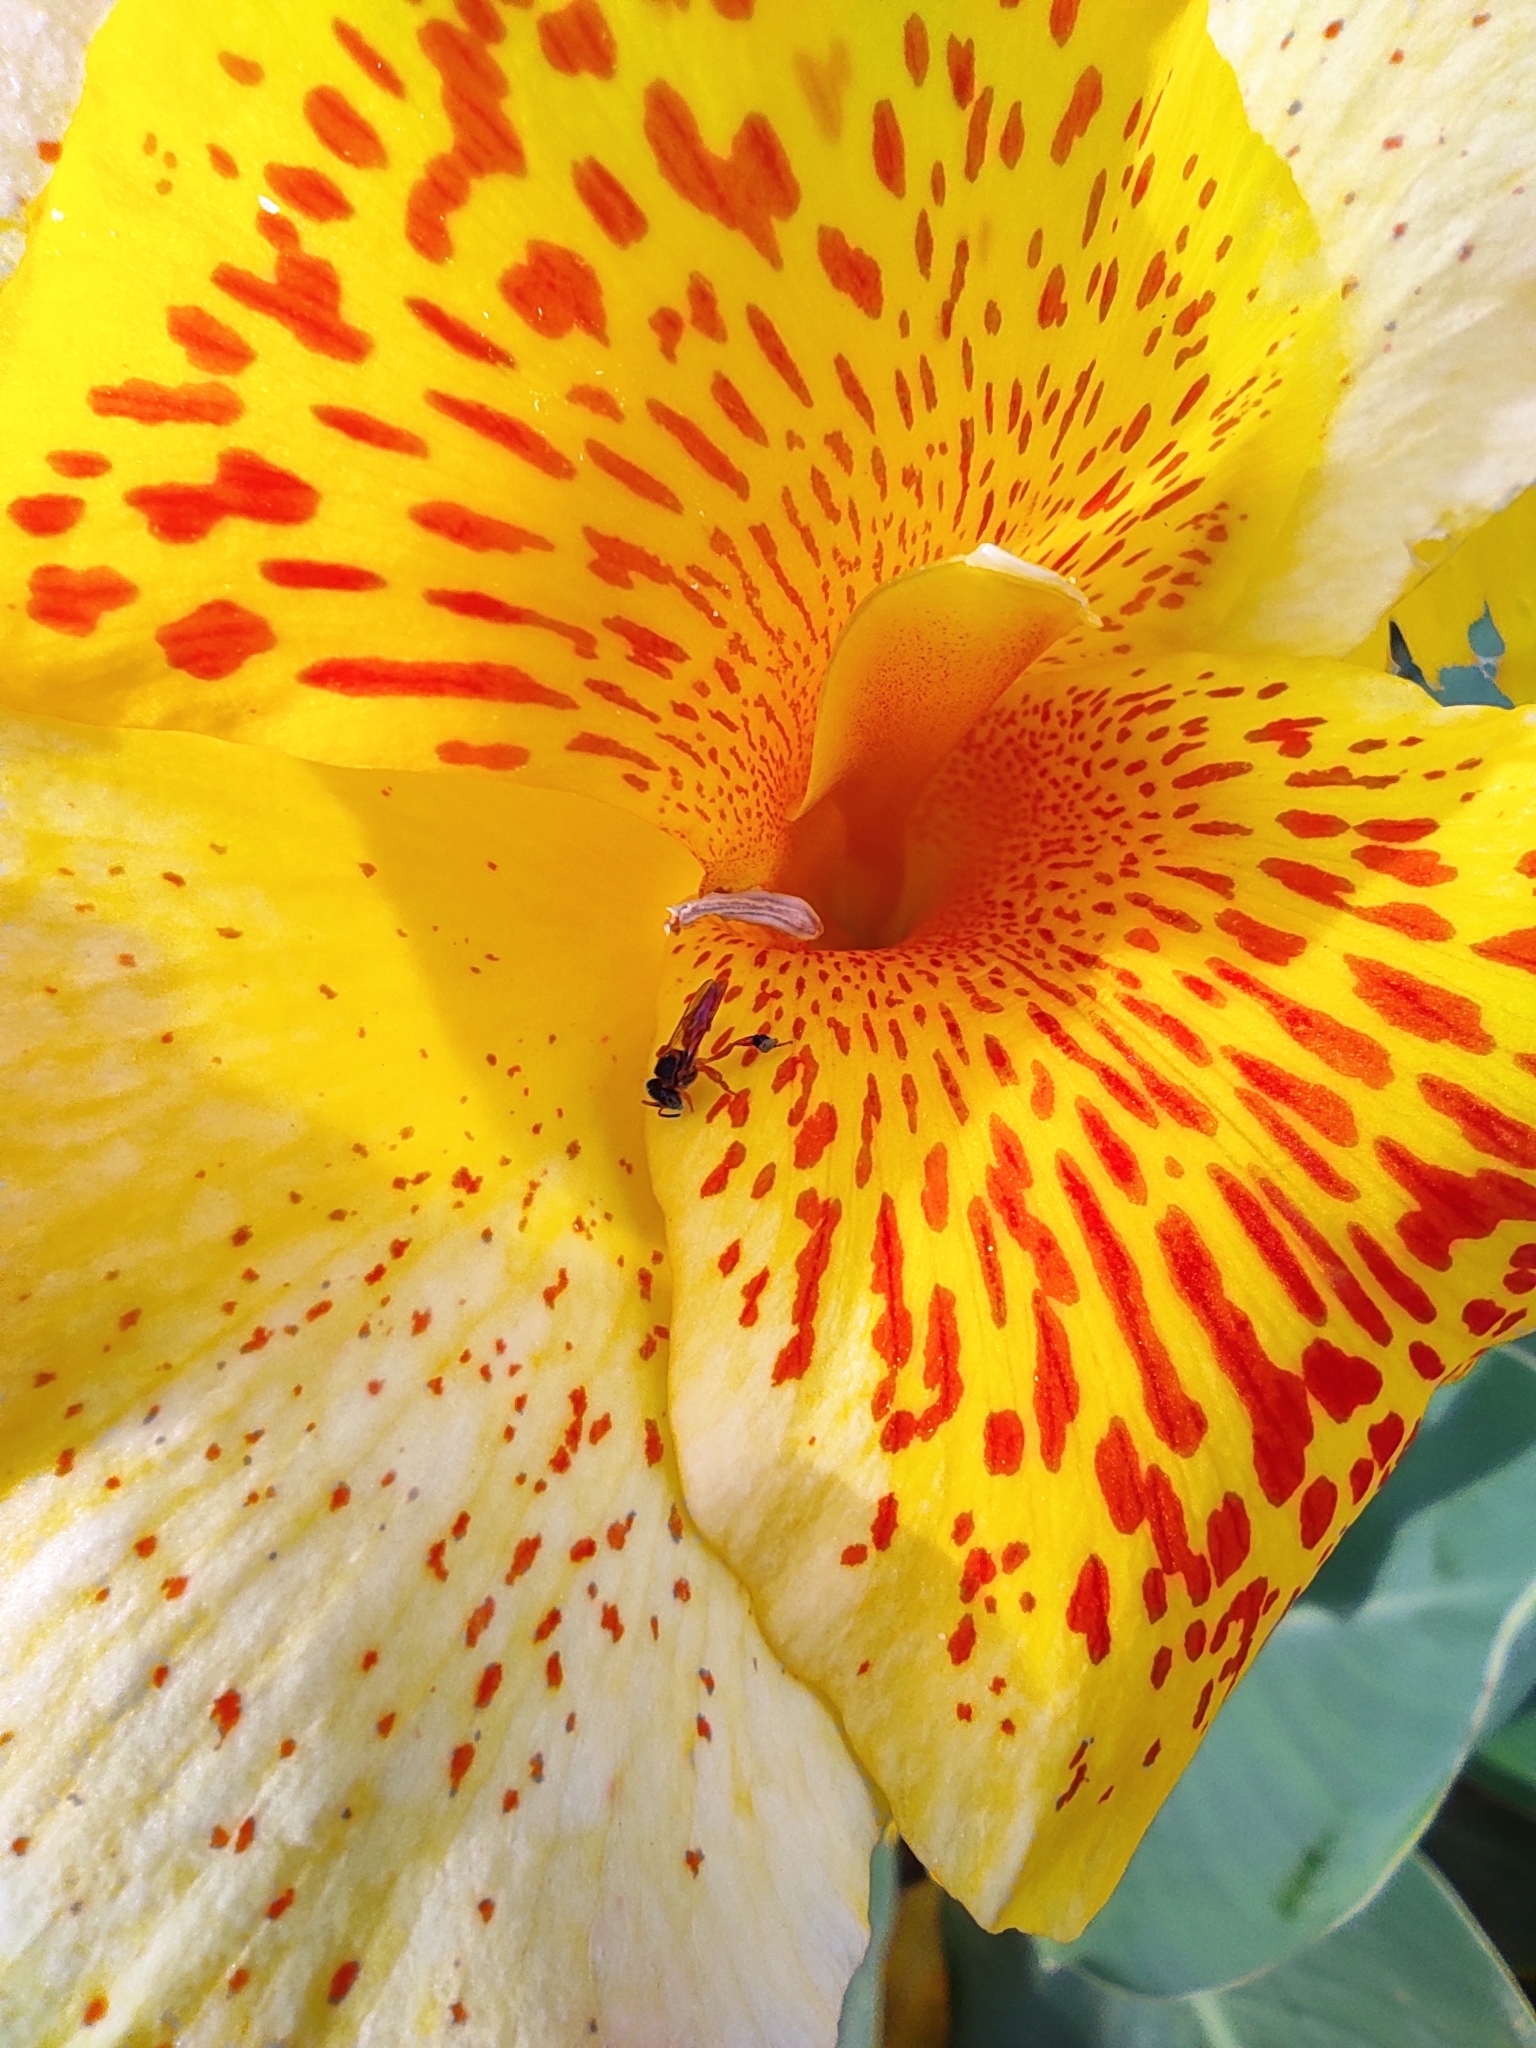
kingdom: Plantae
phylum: Tracheophyta
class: Liliopsida
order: Zingiberales
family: Cannaceae
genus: Canna
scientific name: Canna hybrida
